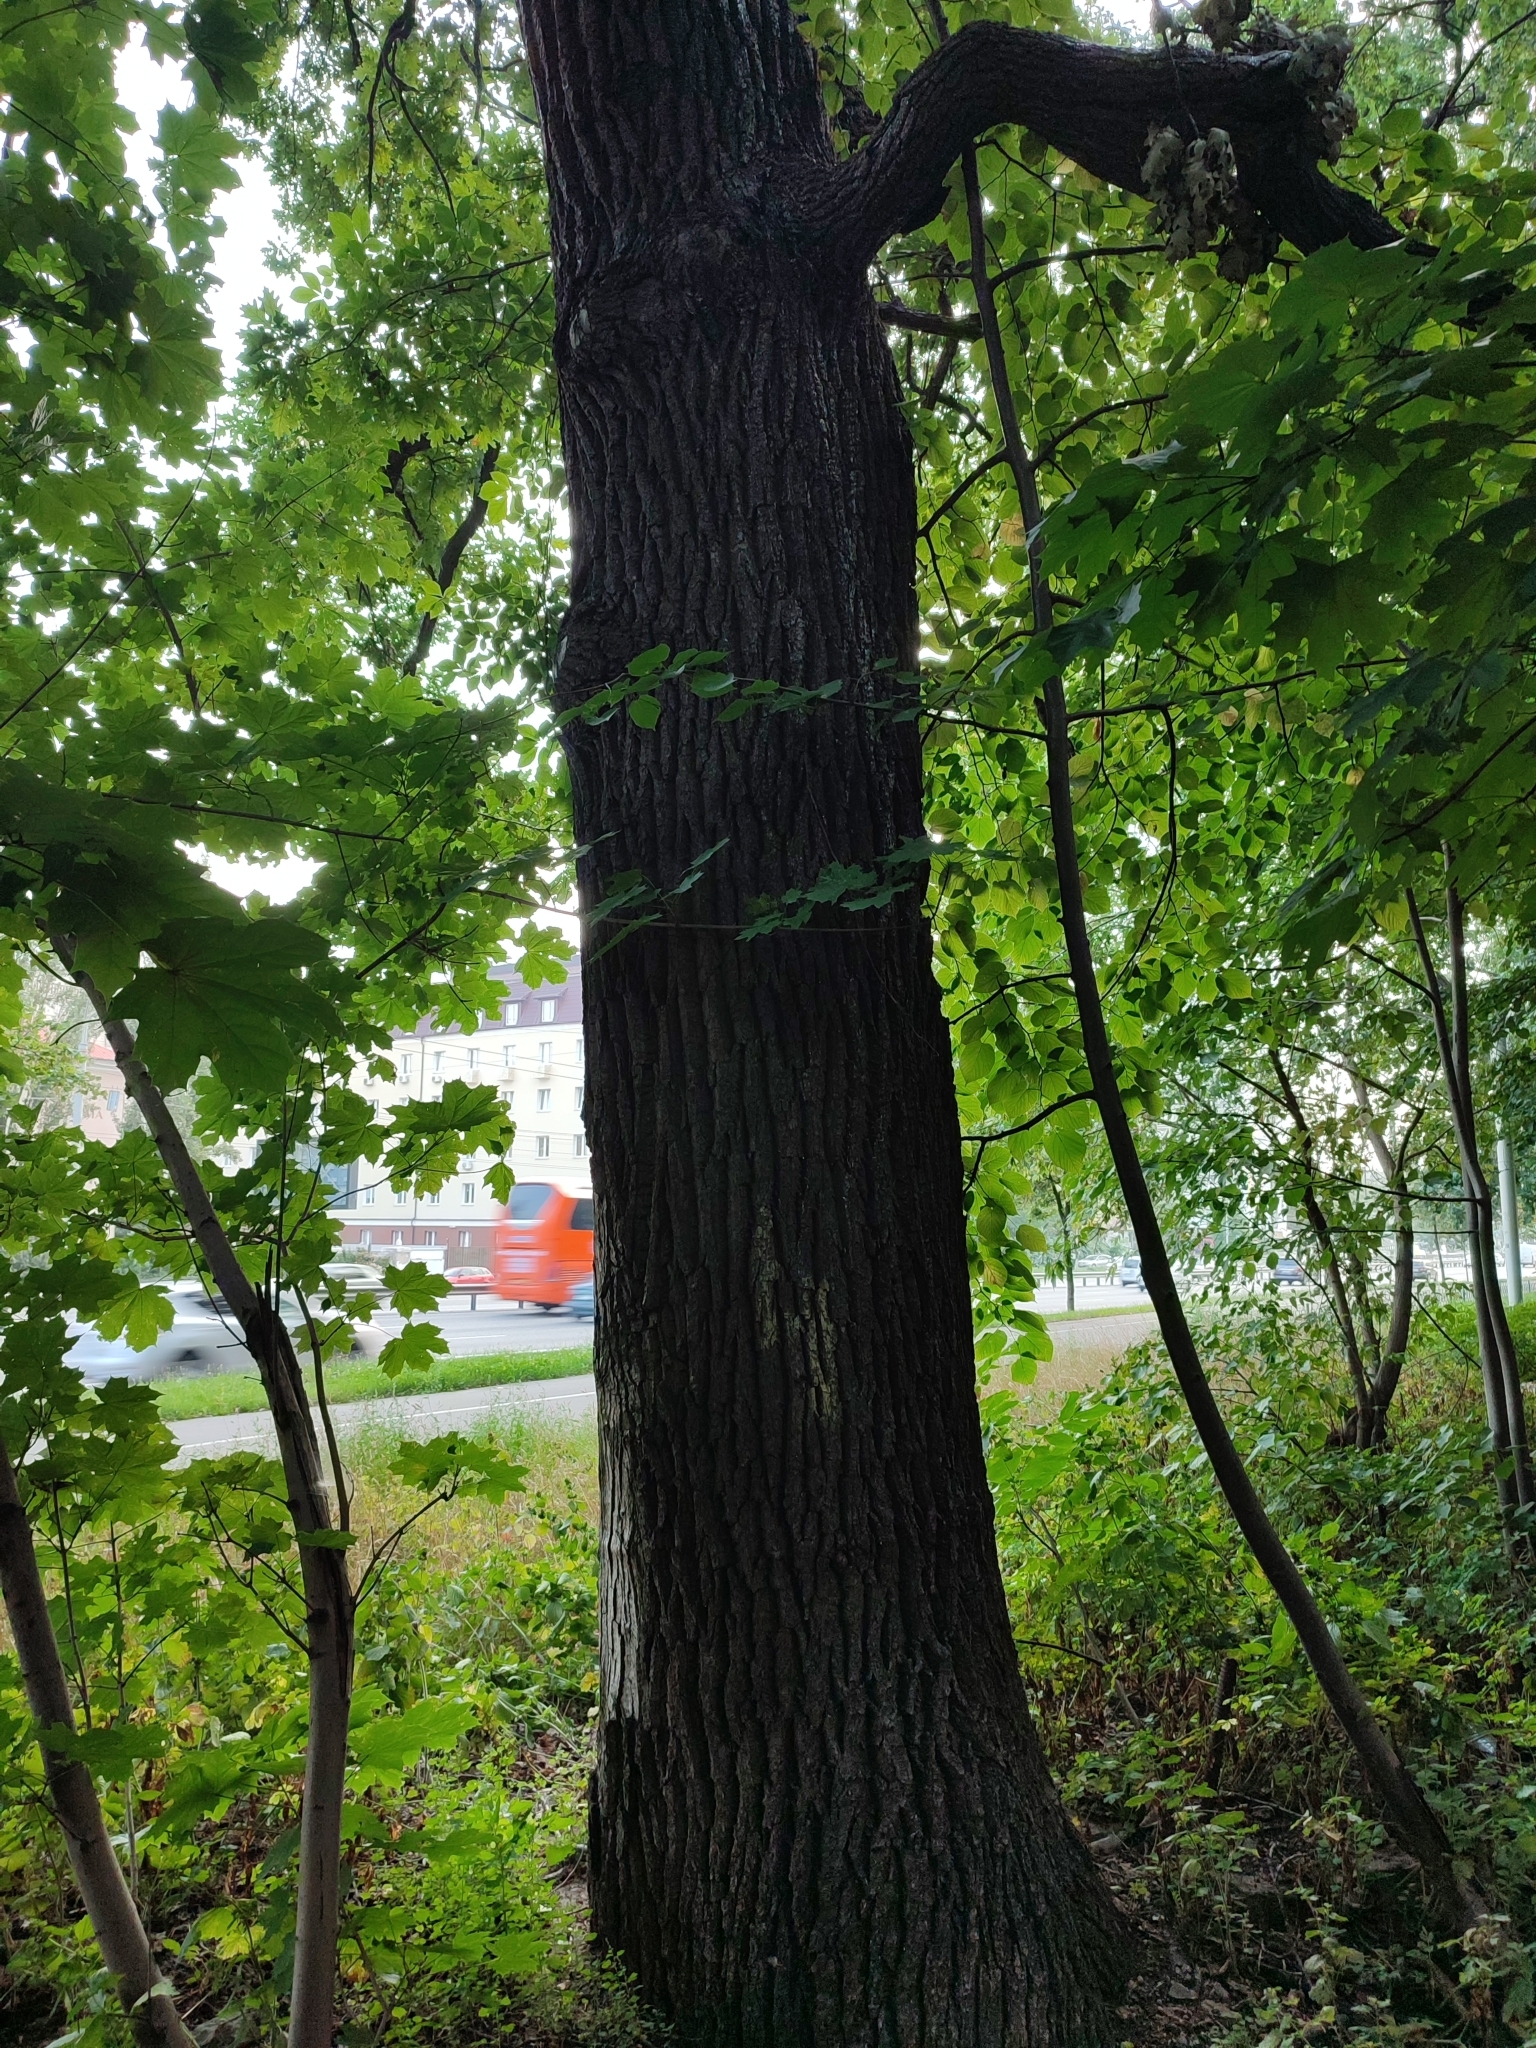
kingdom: Plantae
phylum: Tracheophyta
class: Magnoliopsida
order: Fagales
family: Fagaceae
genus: Quercus
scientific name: Quercus robur
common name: Pedunculate oak
